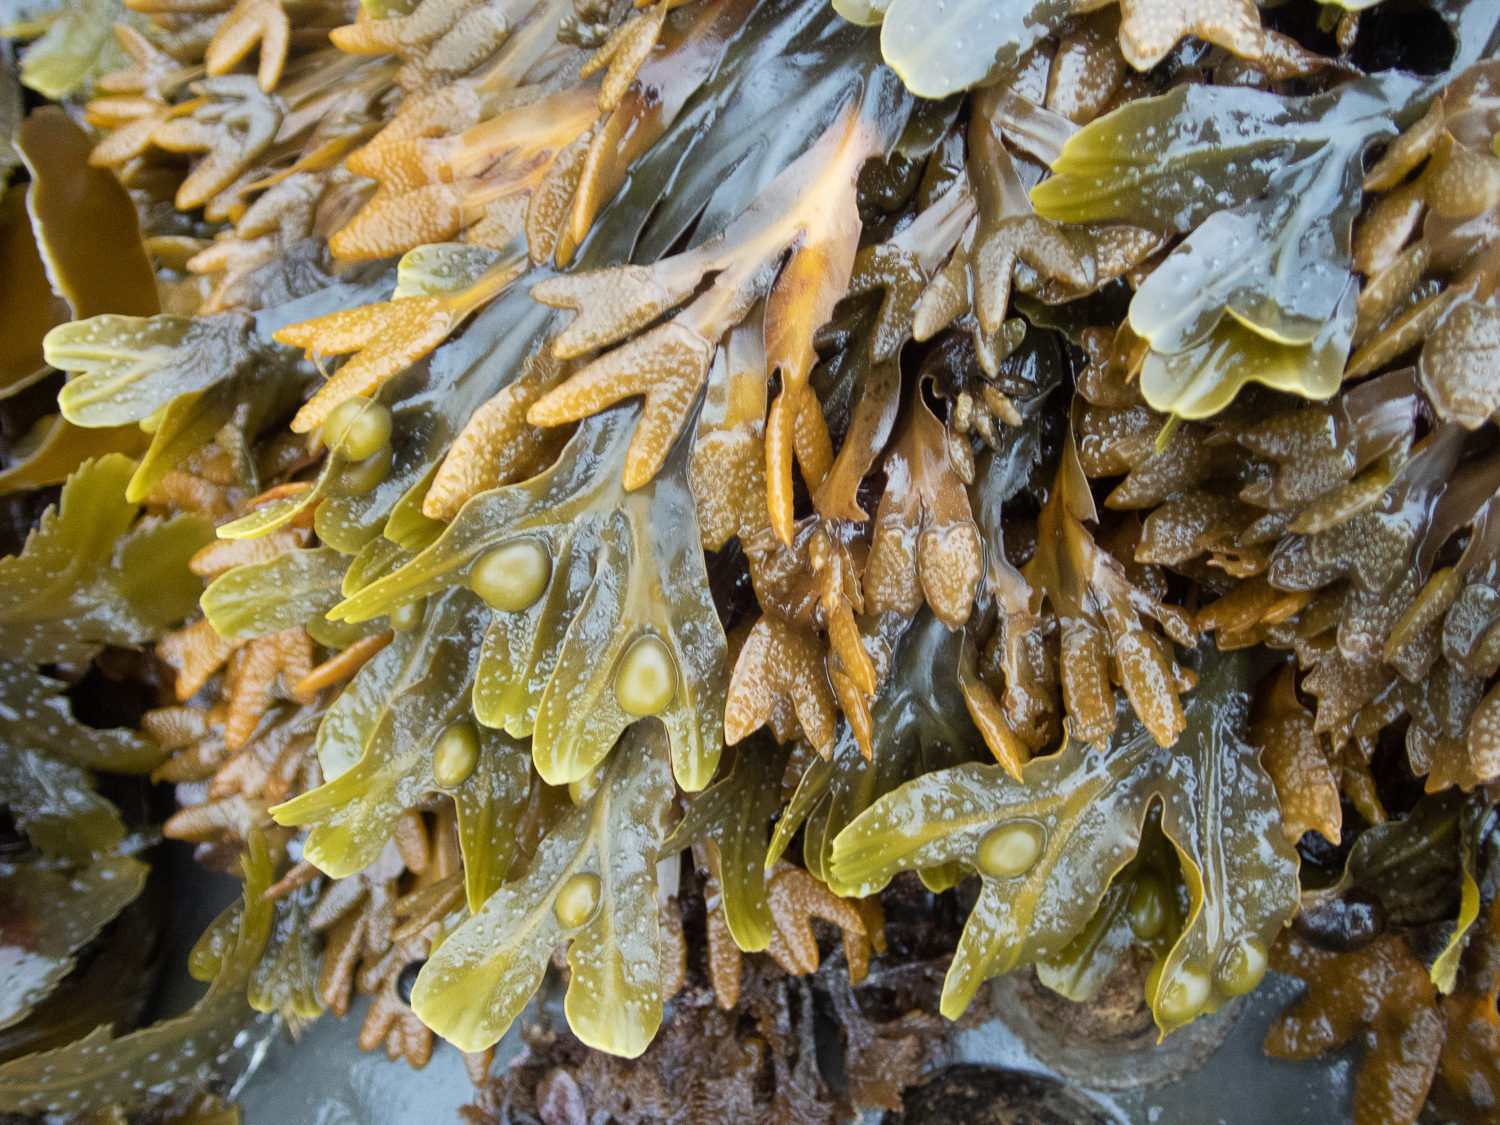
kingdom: Chromista
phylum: Ochrophyta
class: Phaeophyceae
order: Fucales
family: Fucaceae
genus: Fucus
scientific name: Fucus vesiculosus
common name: Bladder wrack
